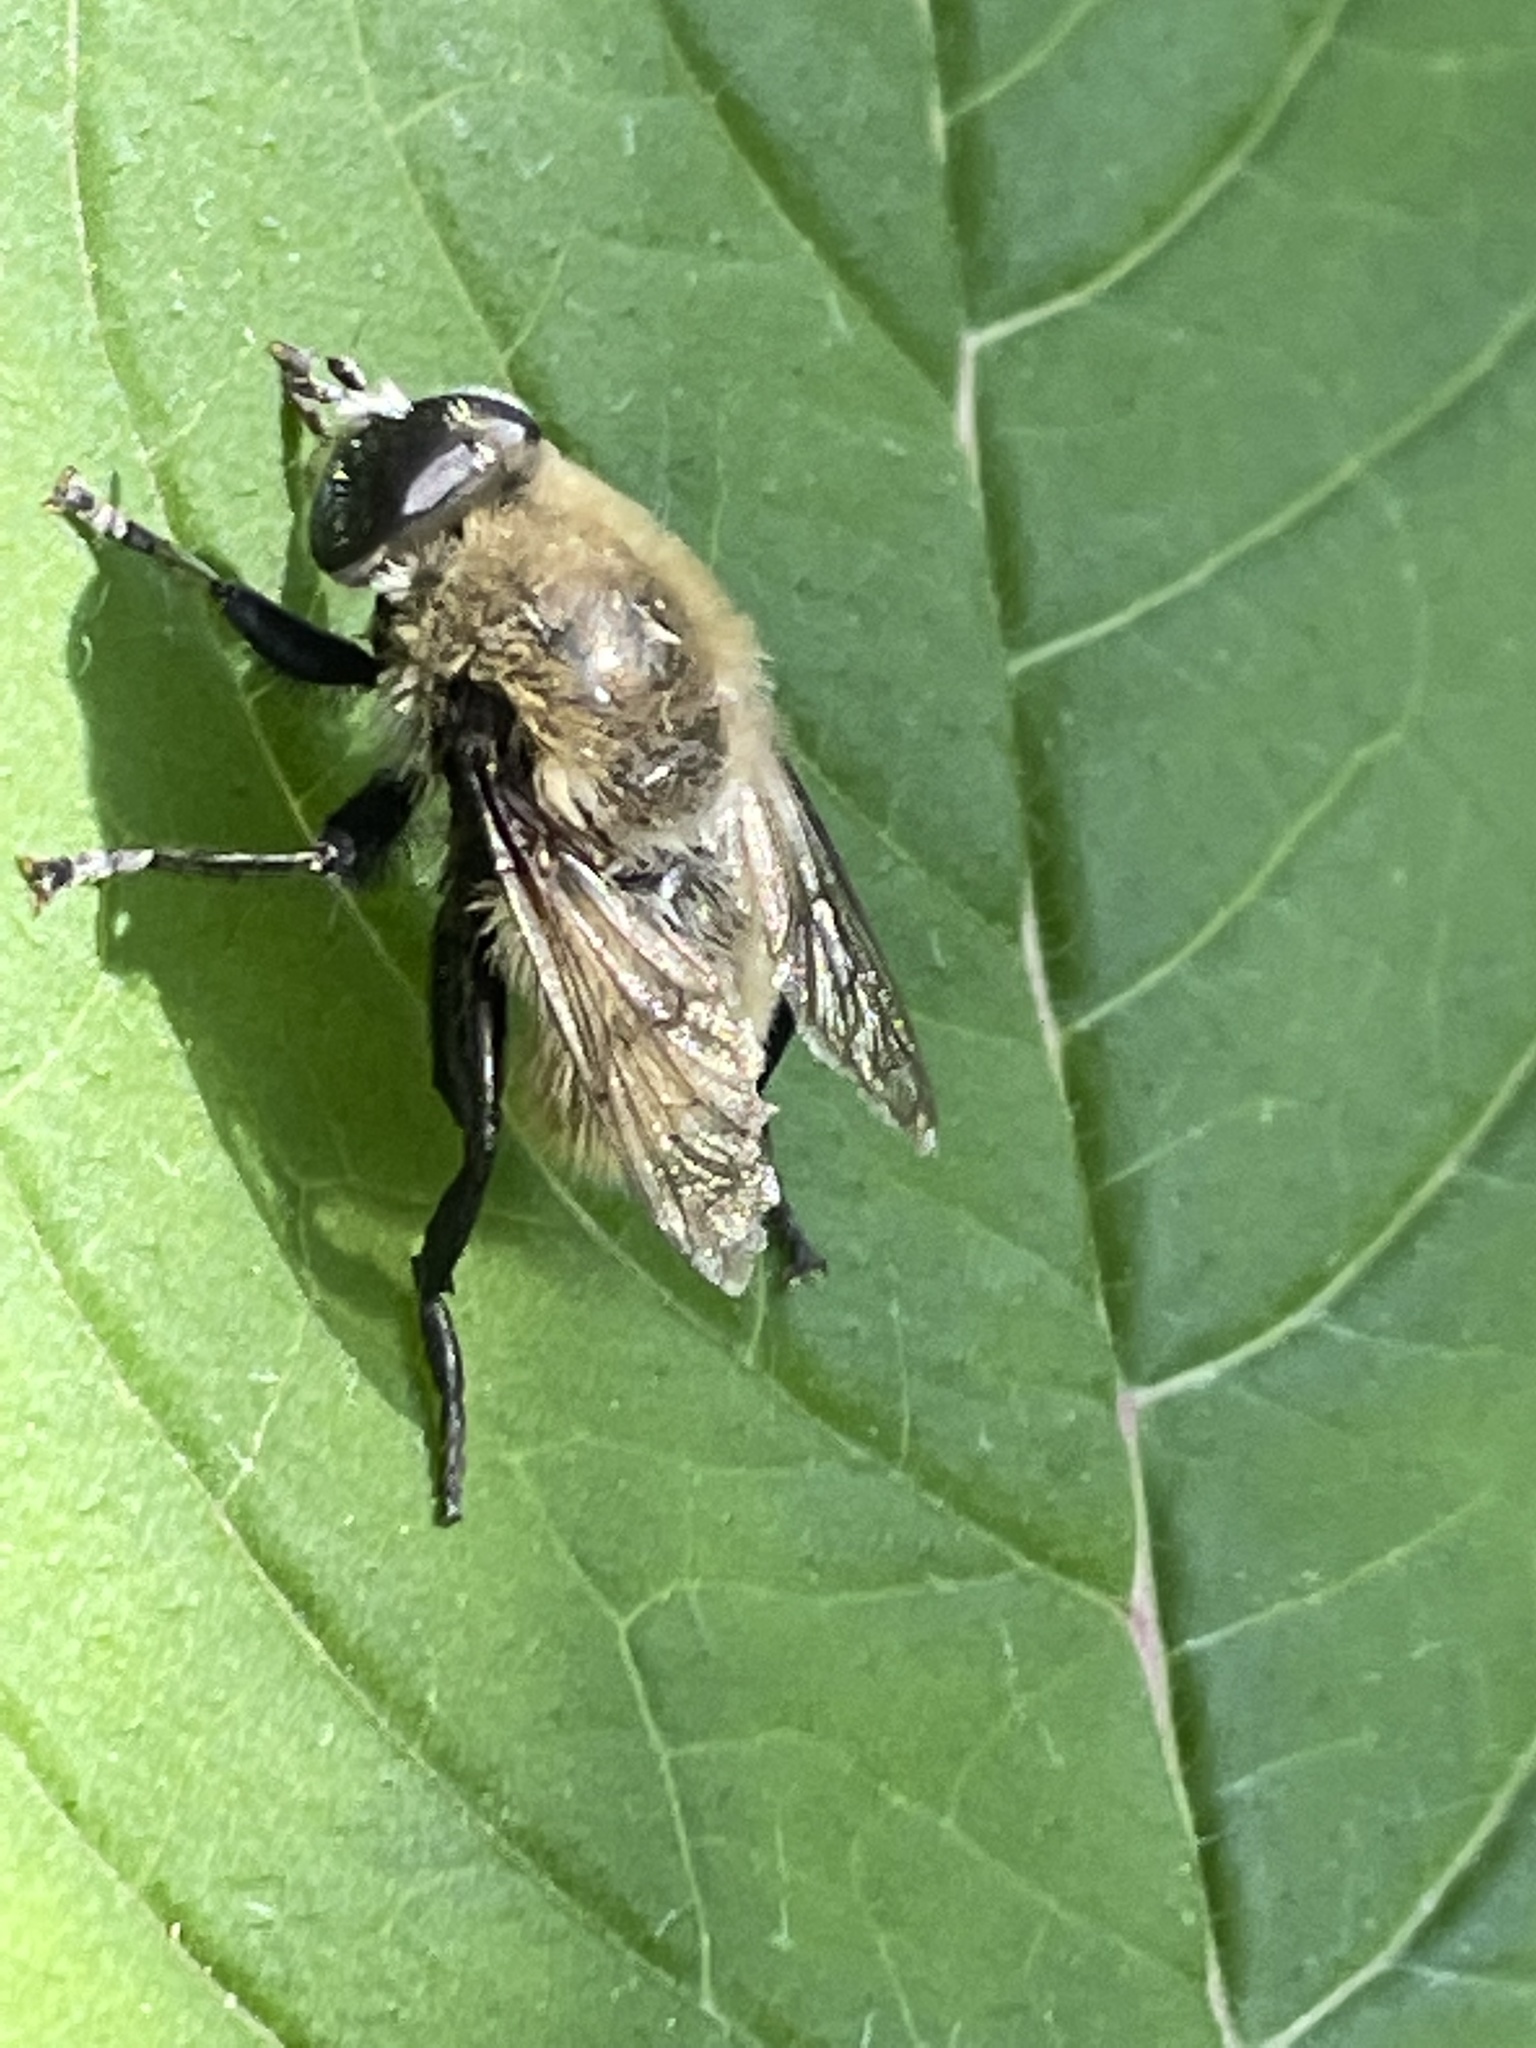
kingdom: Animalia
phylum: Arthropoda
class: Insecta
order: Diptera
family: Syrphidae
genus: Merodon
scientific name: Merodon equestris
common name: Greater bulb-fly
